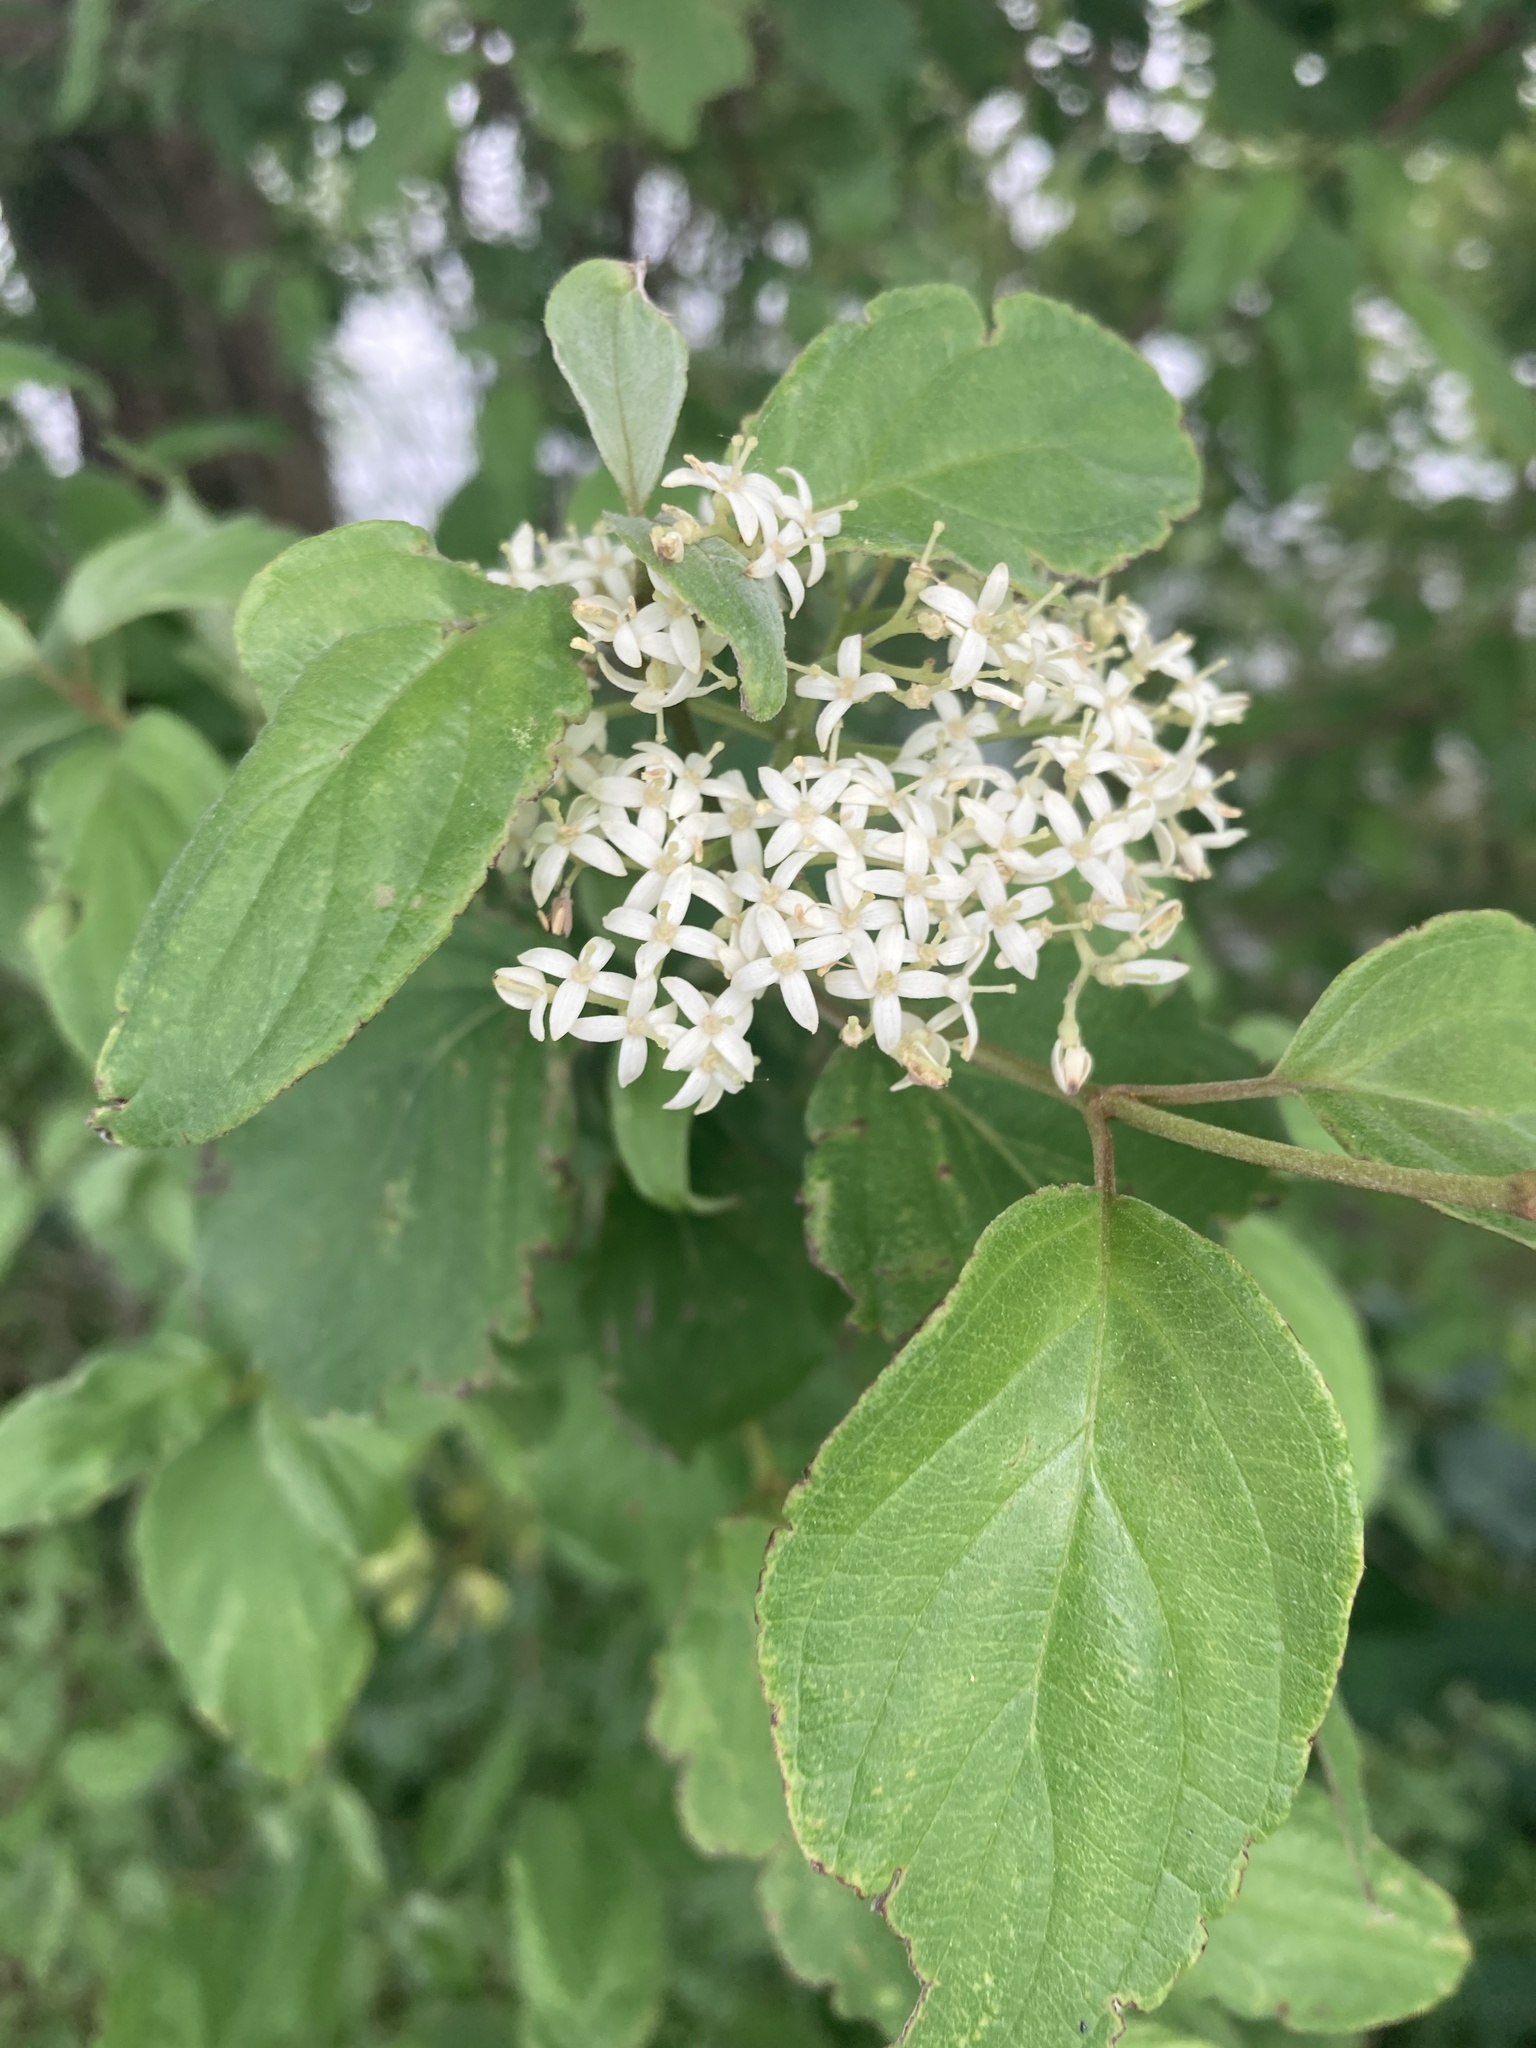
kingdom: Plantae
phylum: Tracheophyta
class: Magnoliopsida
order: Cornales
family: Cornaceae
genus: Cornus
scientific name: Cornus drummondii
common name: Rough-leaf dogwood
